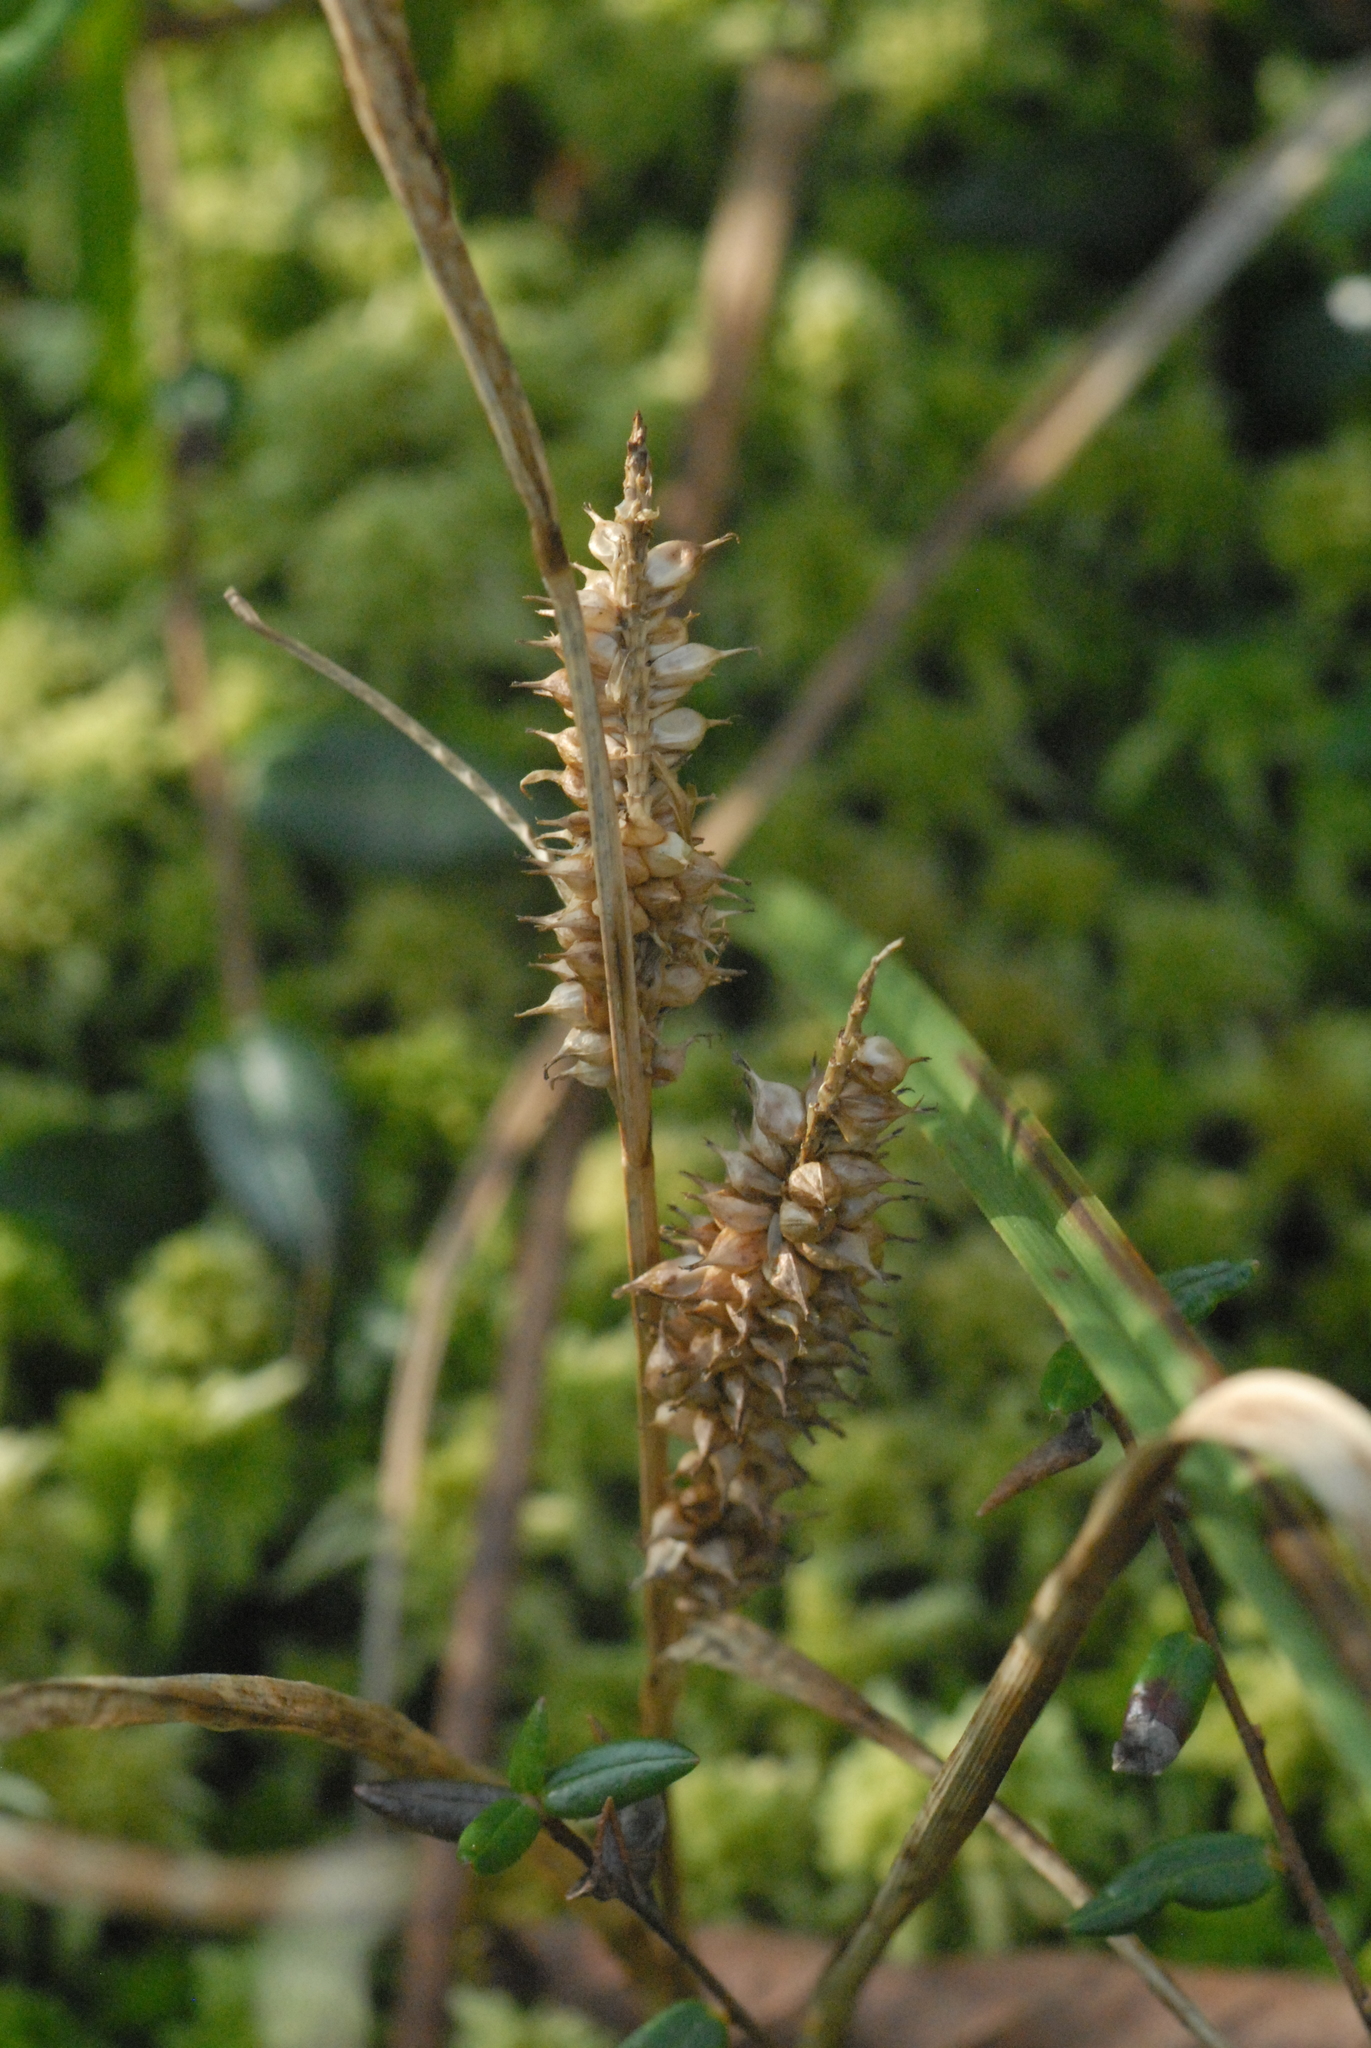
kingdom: Plantae
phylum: Tracheophyta
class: Liliopsida
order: Poales
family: Cyperaceae
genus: Carex
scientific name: Carex rostrata
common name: Bottle sedge
